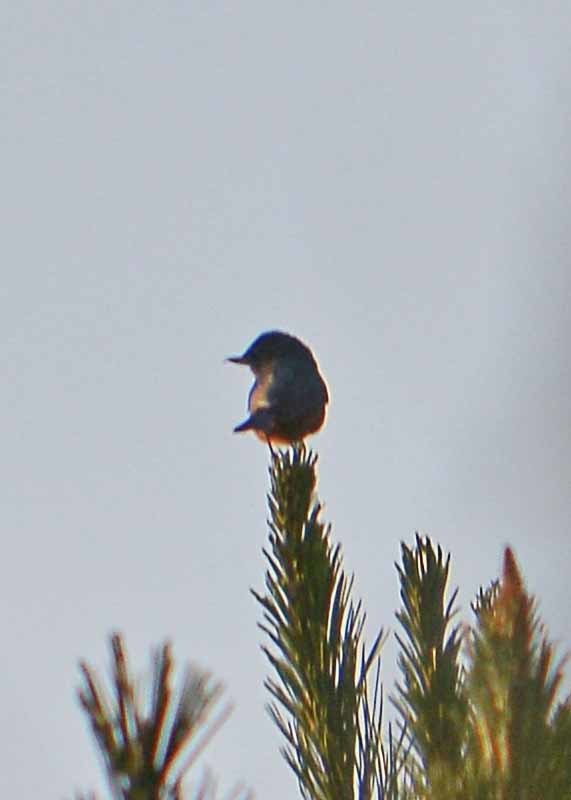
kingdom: Animalia
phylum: Chordata
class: Aves
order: Passeriformes
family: Thraupidae
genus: Diglossa
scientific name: Diglossa baritula
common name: Cinnamon-bellied flowerpiercer
